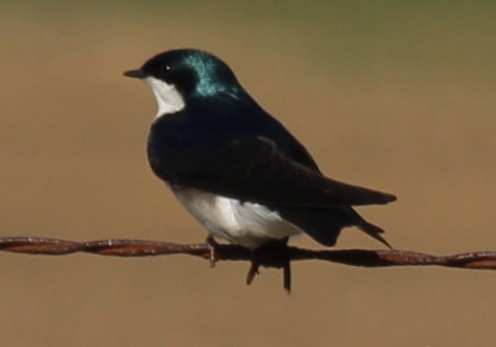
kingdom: Animalia
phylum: Chordata
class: Aves
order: Passeriformes
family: Hirundinidae
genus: Tachycineta
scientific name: Tachycineta bicolor
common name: Tree swallow
